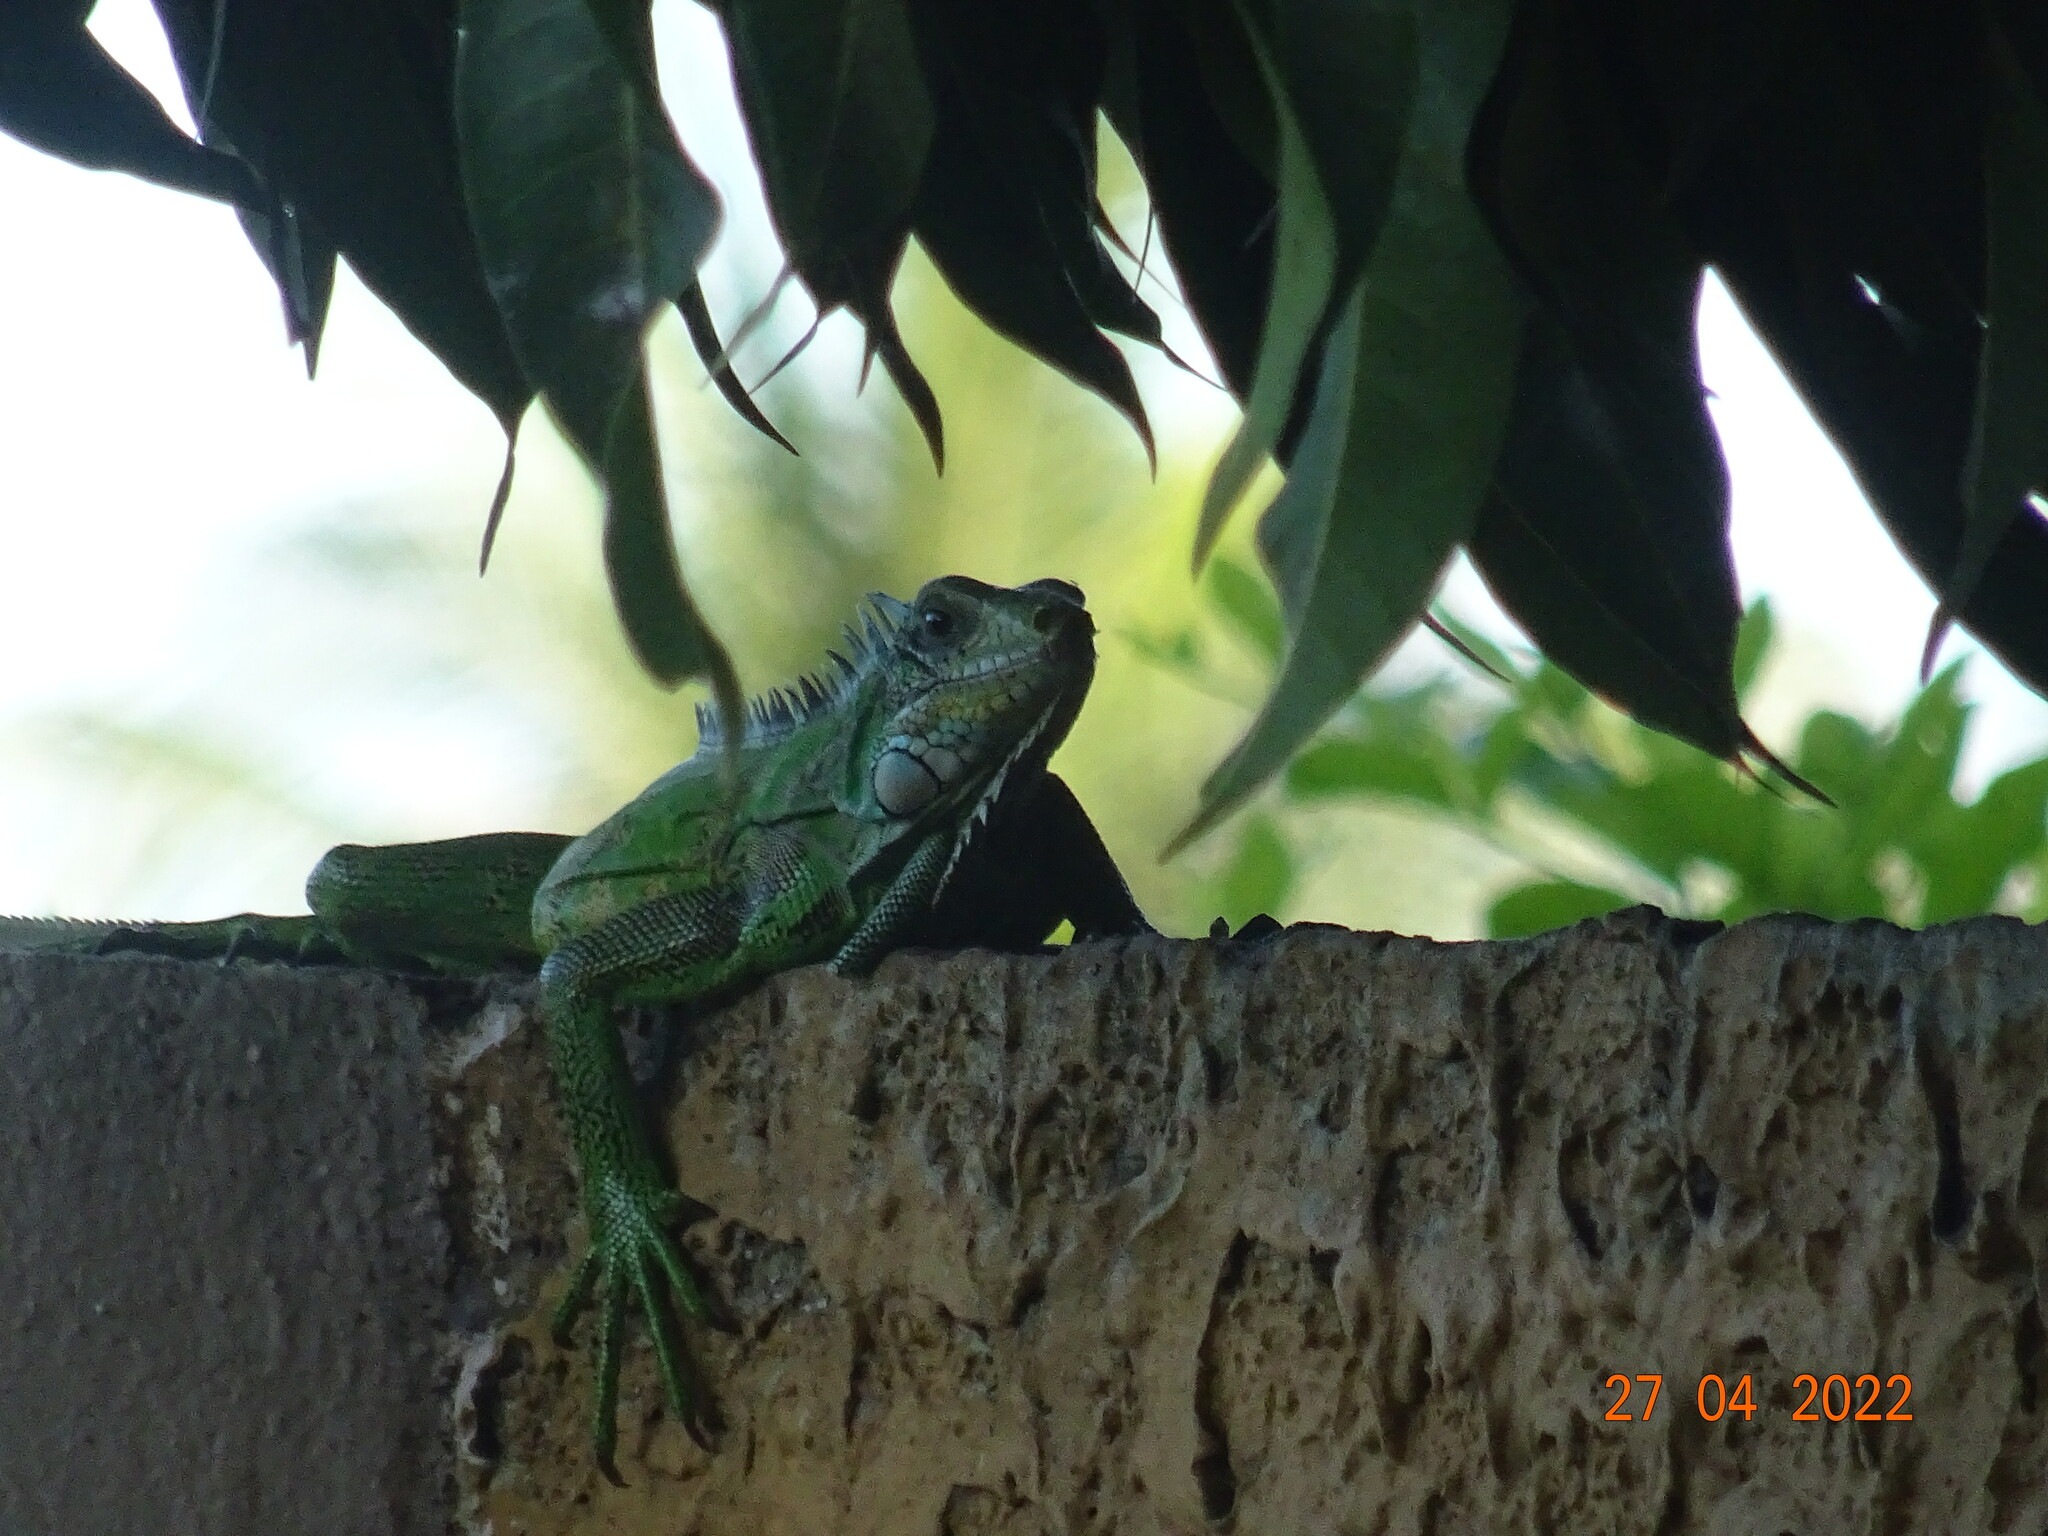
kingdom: Animalia
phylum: Chordata
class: Squamata
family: Iguanidae
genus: Iguana
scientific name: Iguana iguana
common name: Green iguana
